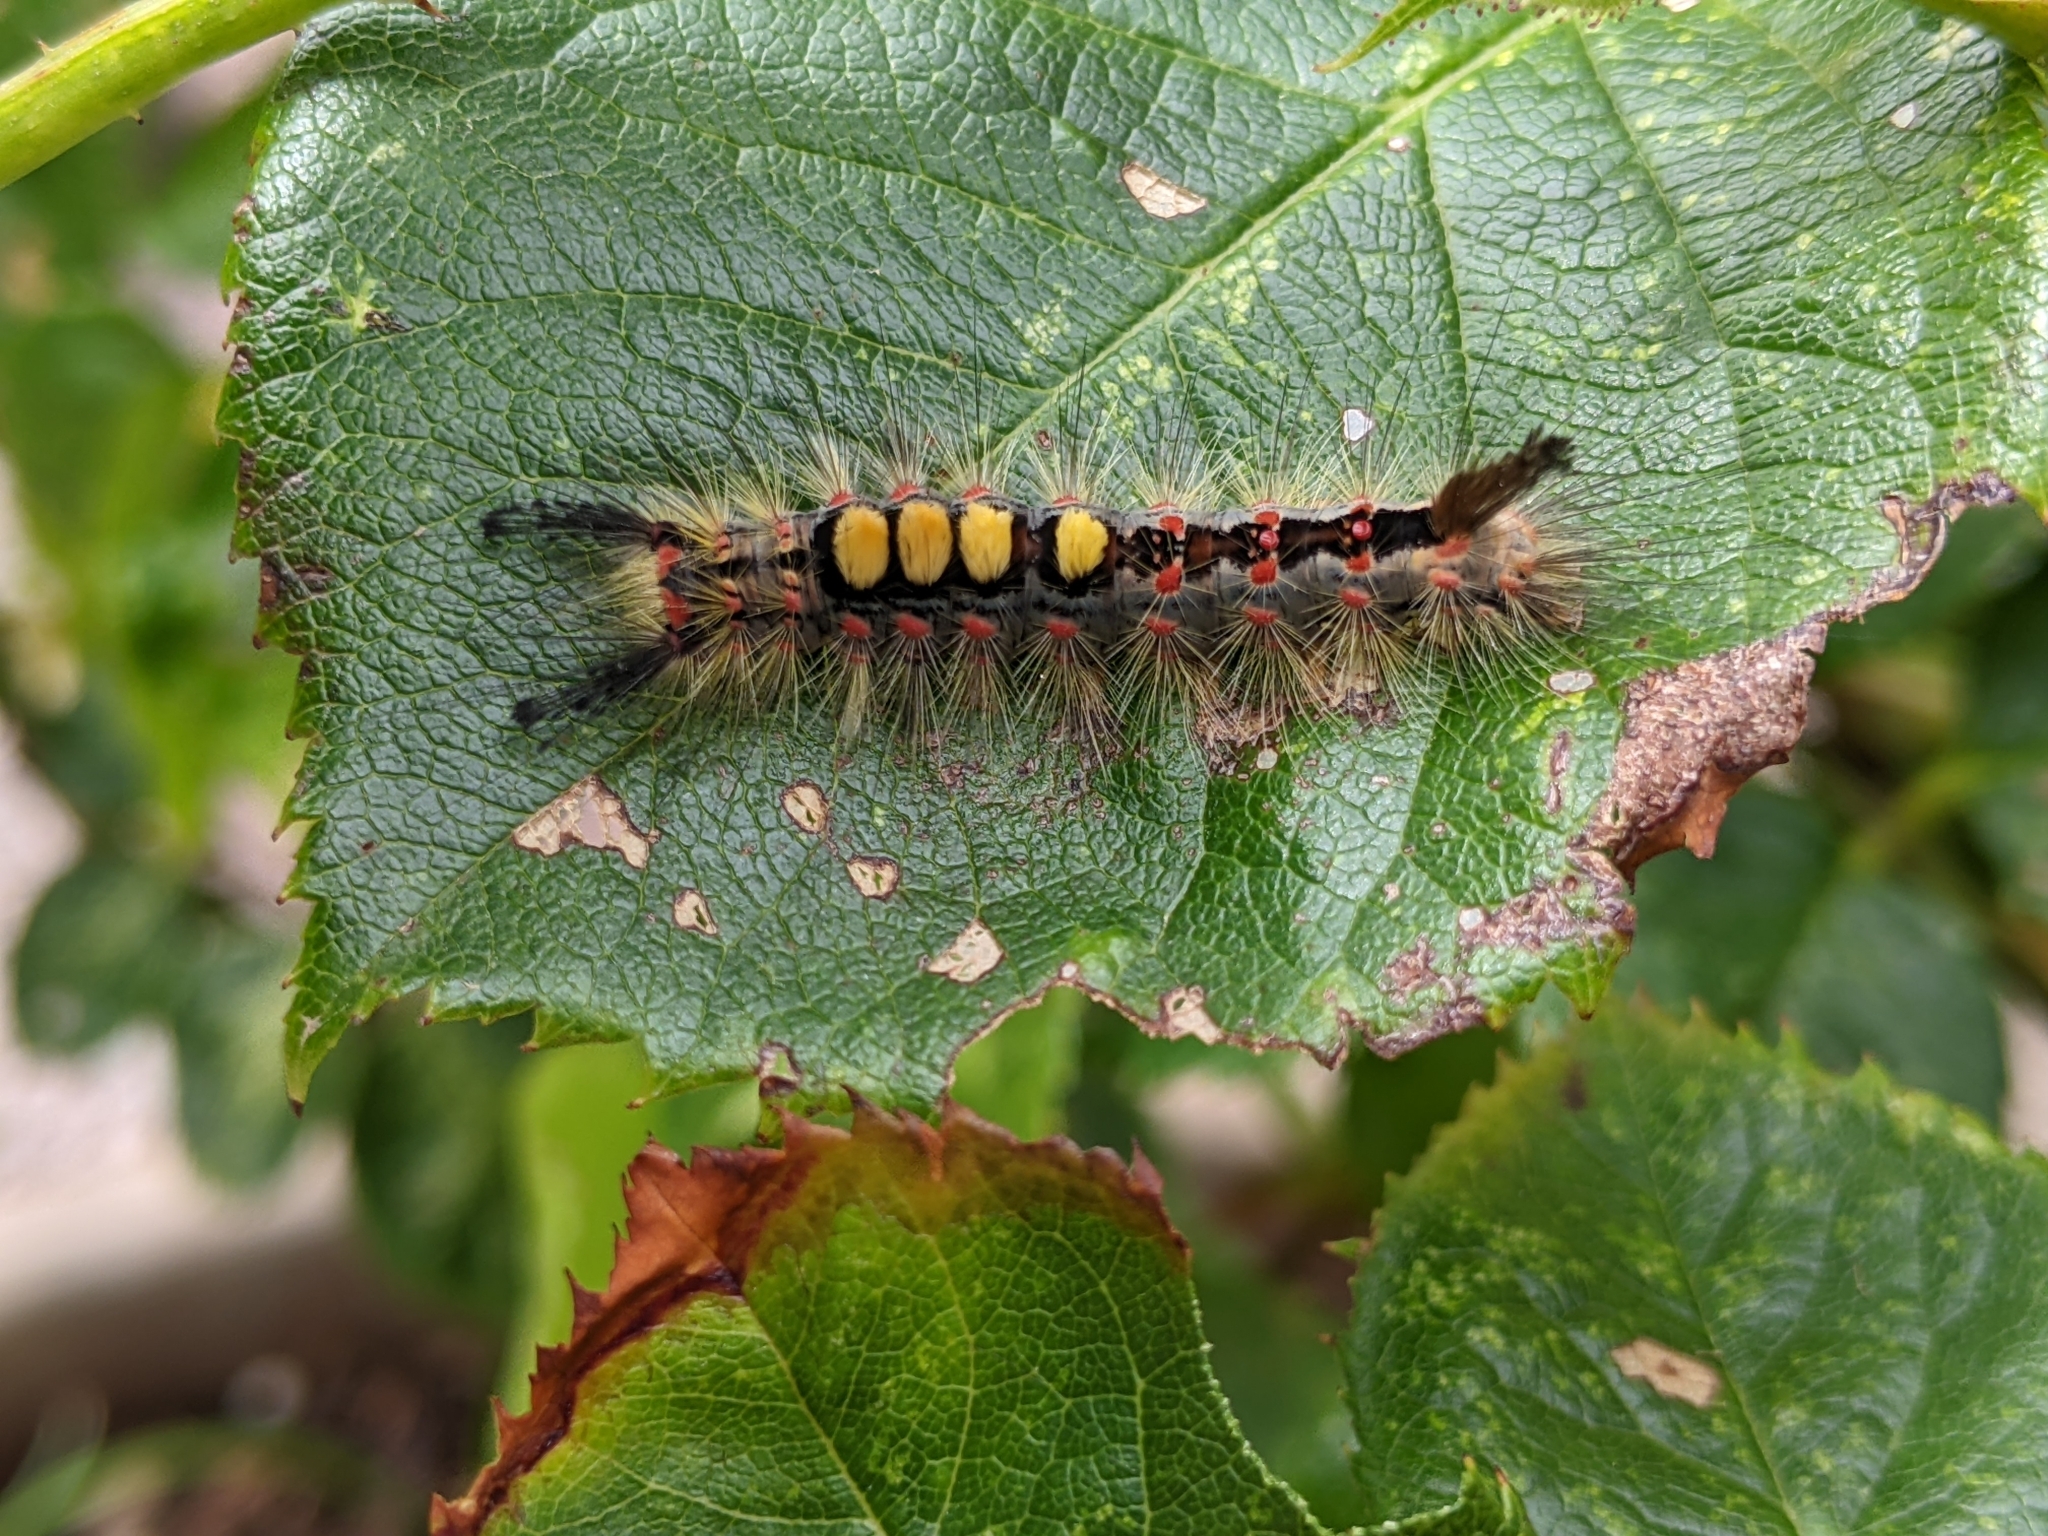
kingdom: Animalia
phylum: Arthropoda
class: Insecta
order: Lepidoptera
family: Erebidae
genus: Orgyia
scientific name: Orgyia antiqua
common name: Vapourer
